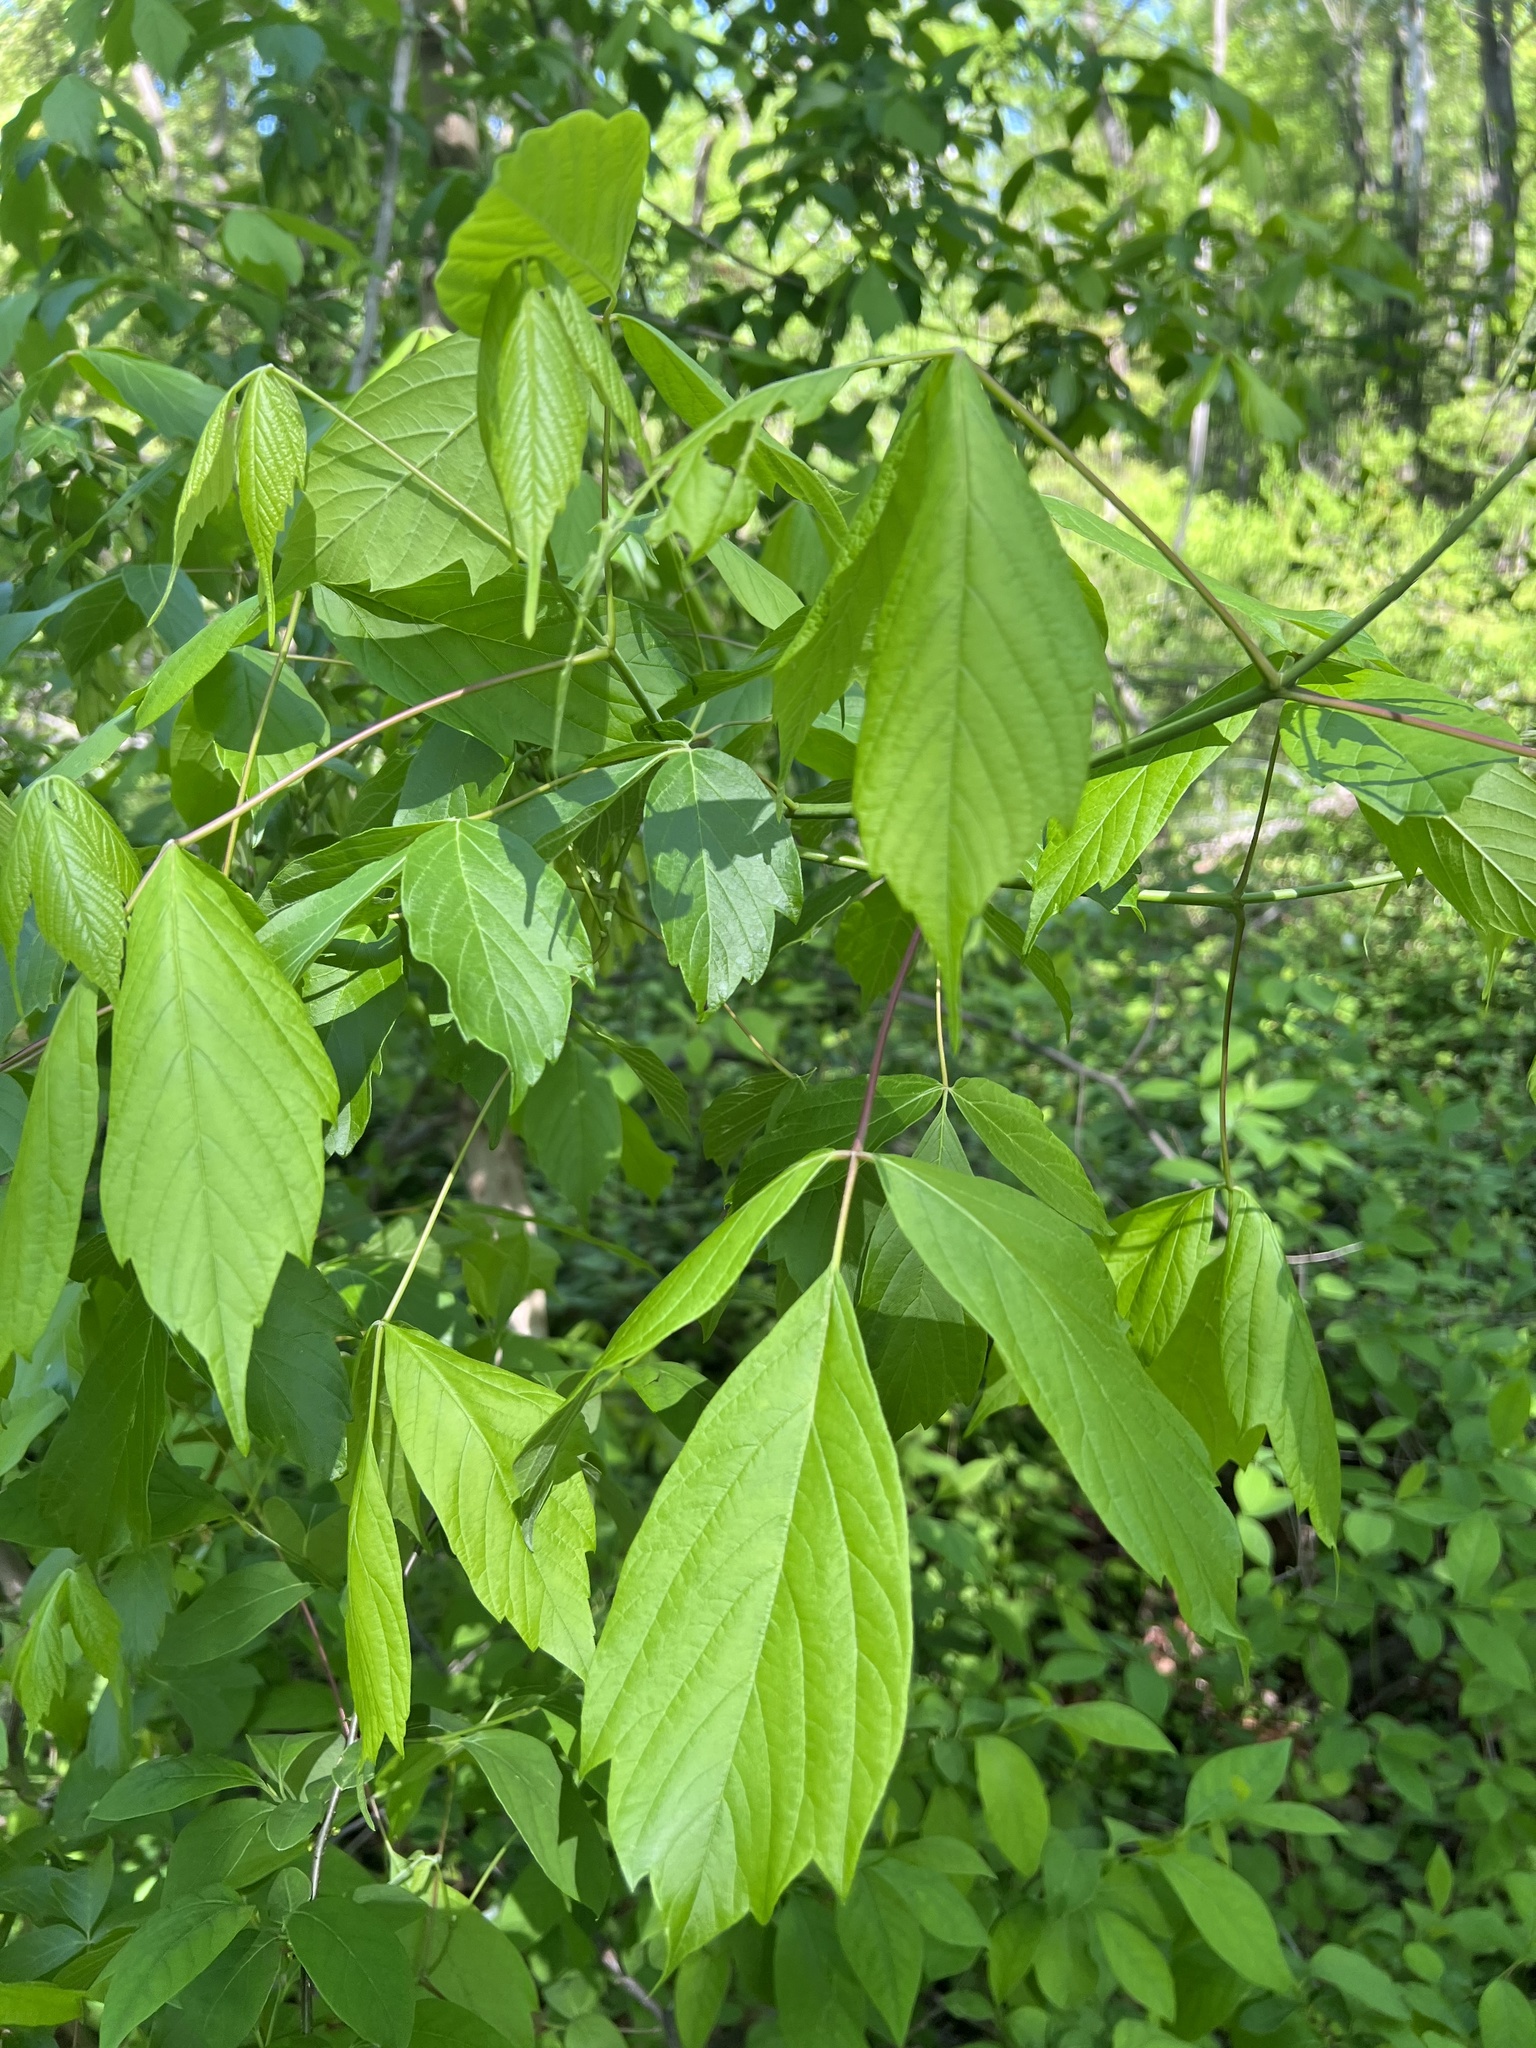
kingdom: Plantae
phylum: Tracheophyta
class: Magnoliopsida
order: Sapindales
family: Sapindaceae
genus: Acer
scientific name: Acer negundo
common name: Ashleaf maple
